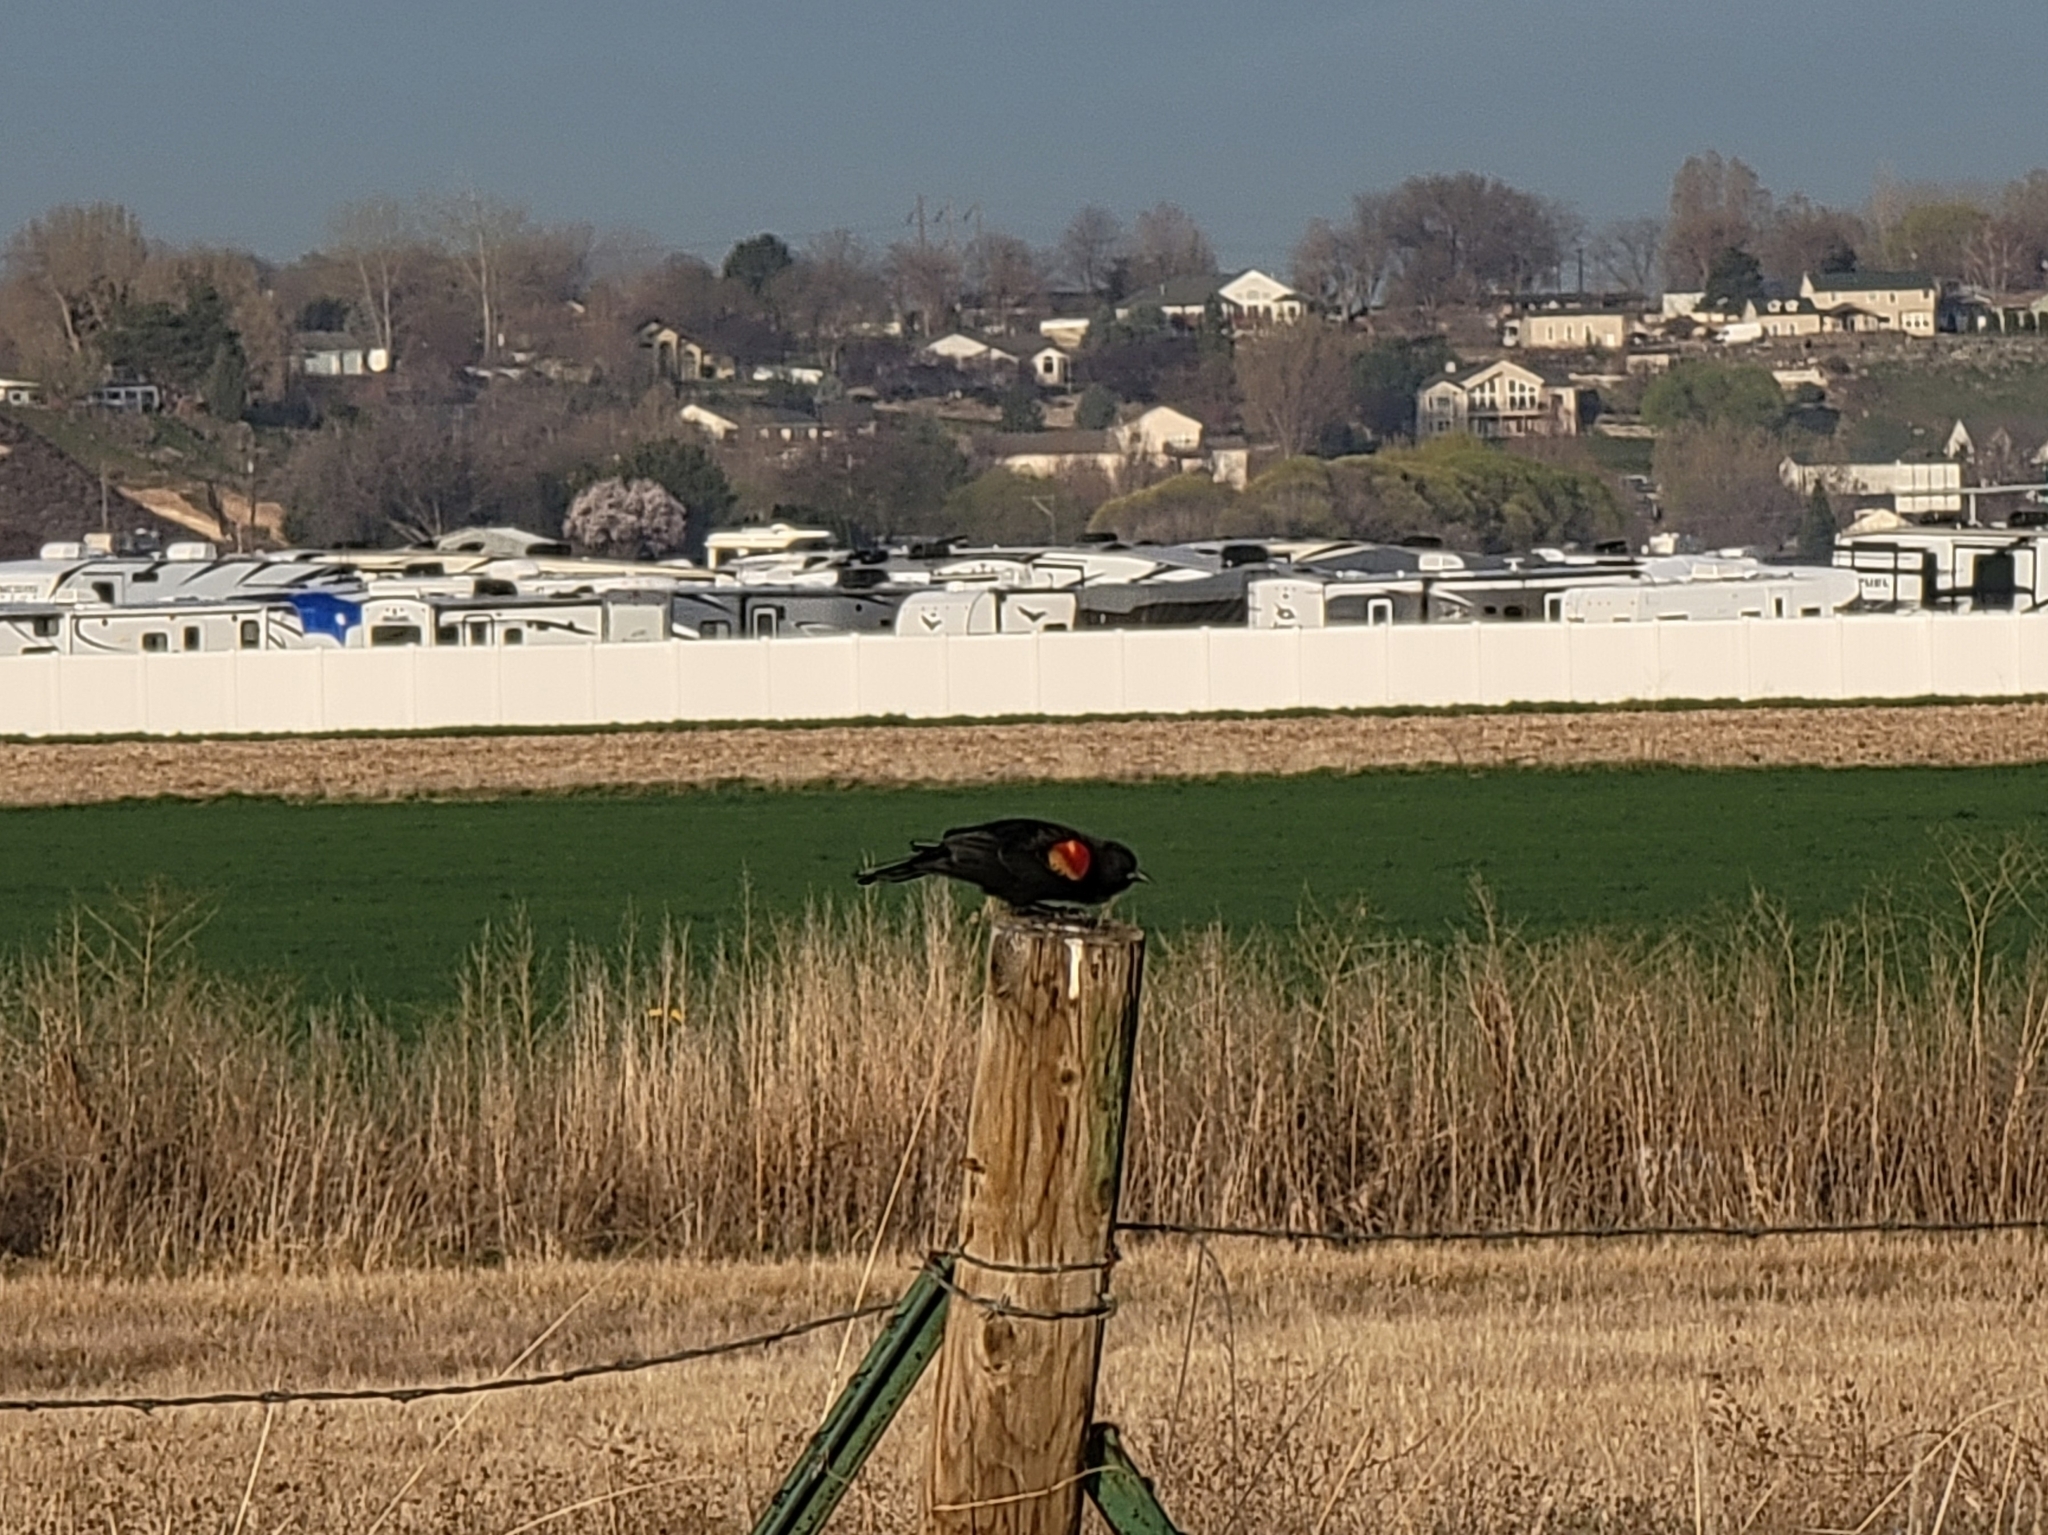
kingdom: Animalia
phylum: Chordata
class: Aves
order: Passeriformes
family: Icteridae
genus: Agelaius
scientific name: Agelaius phoeniceus
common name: Red-winged blackbird
